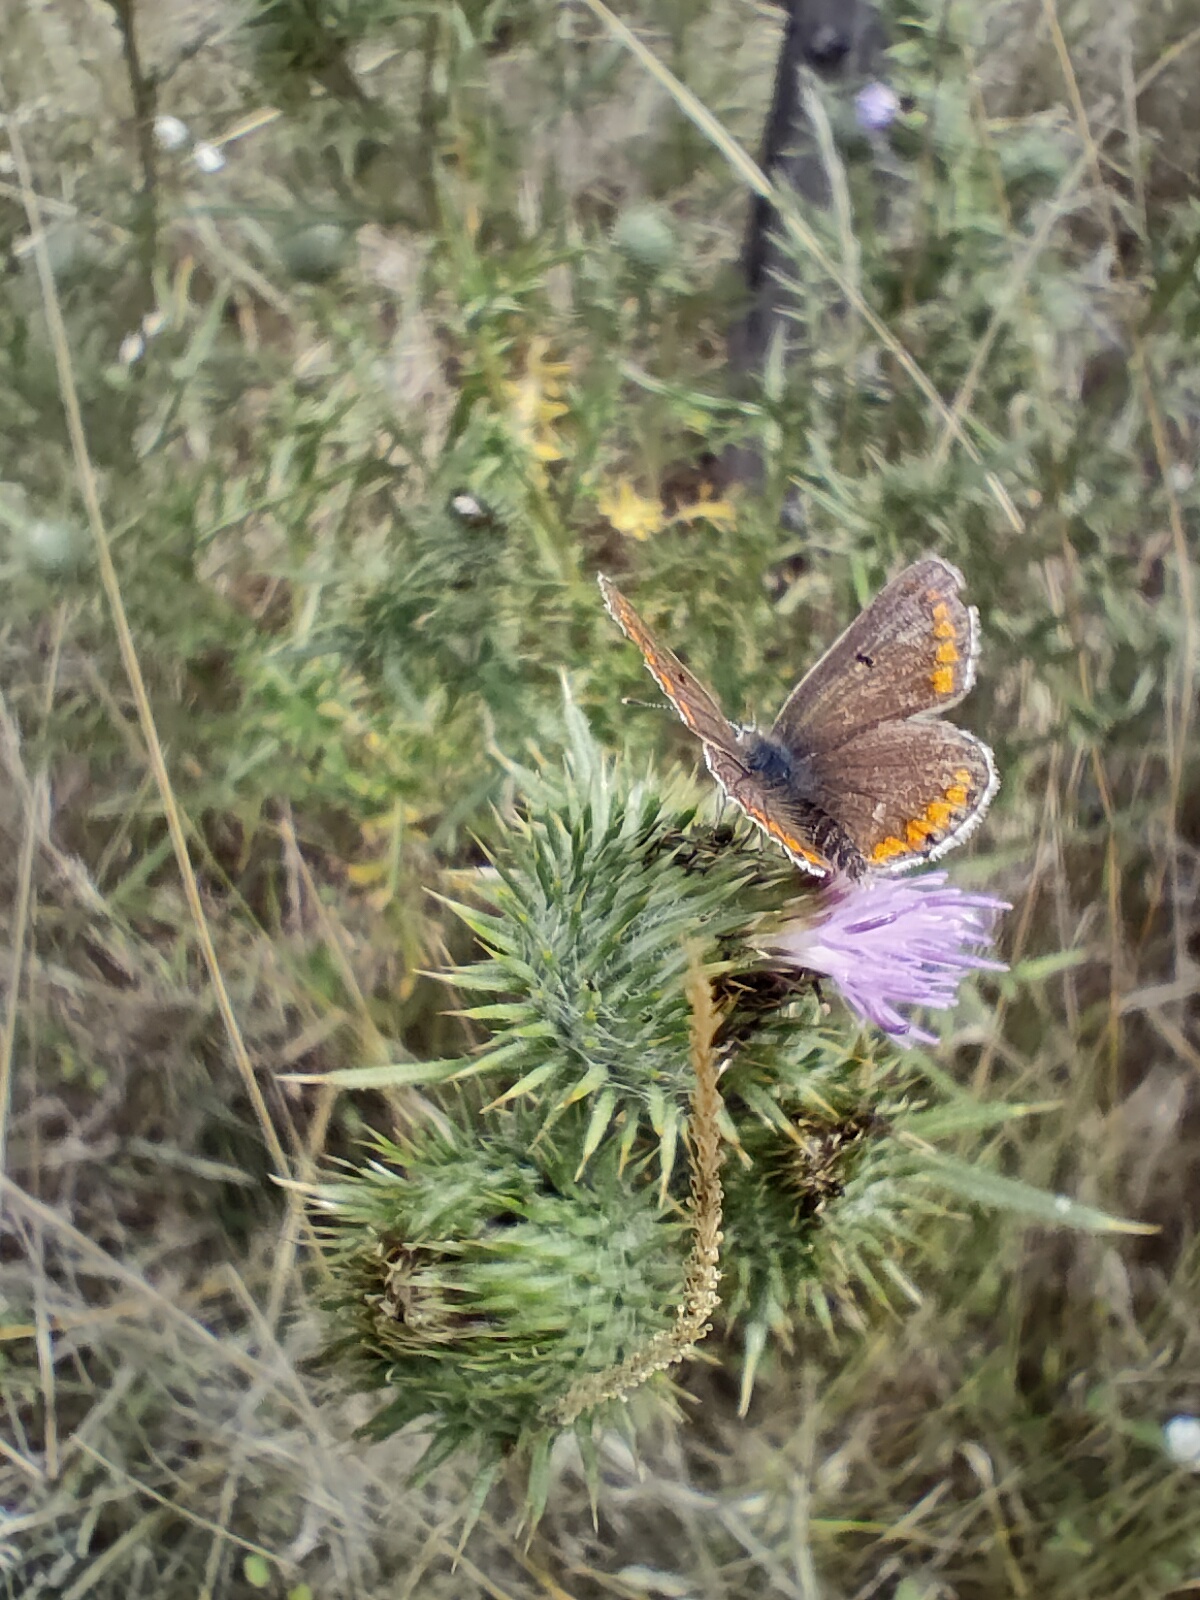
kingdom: Animalia
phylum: Arthropoda
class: Insecta
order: Lepidoptera
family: Lycaenidae
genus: Aricia
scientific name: Aricia agestis
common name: Brown argus
